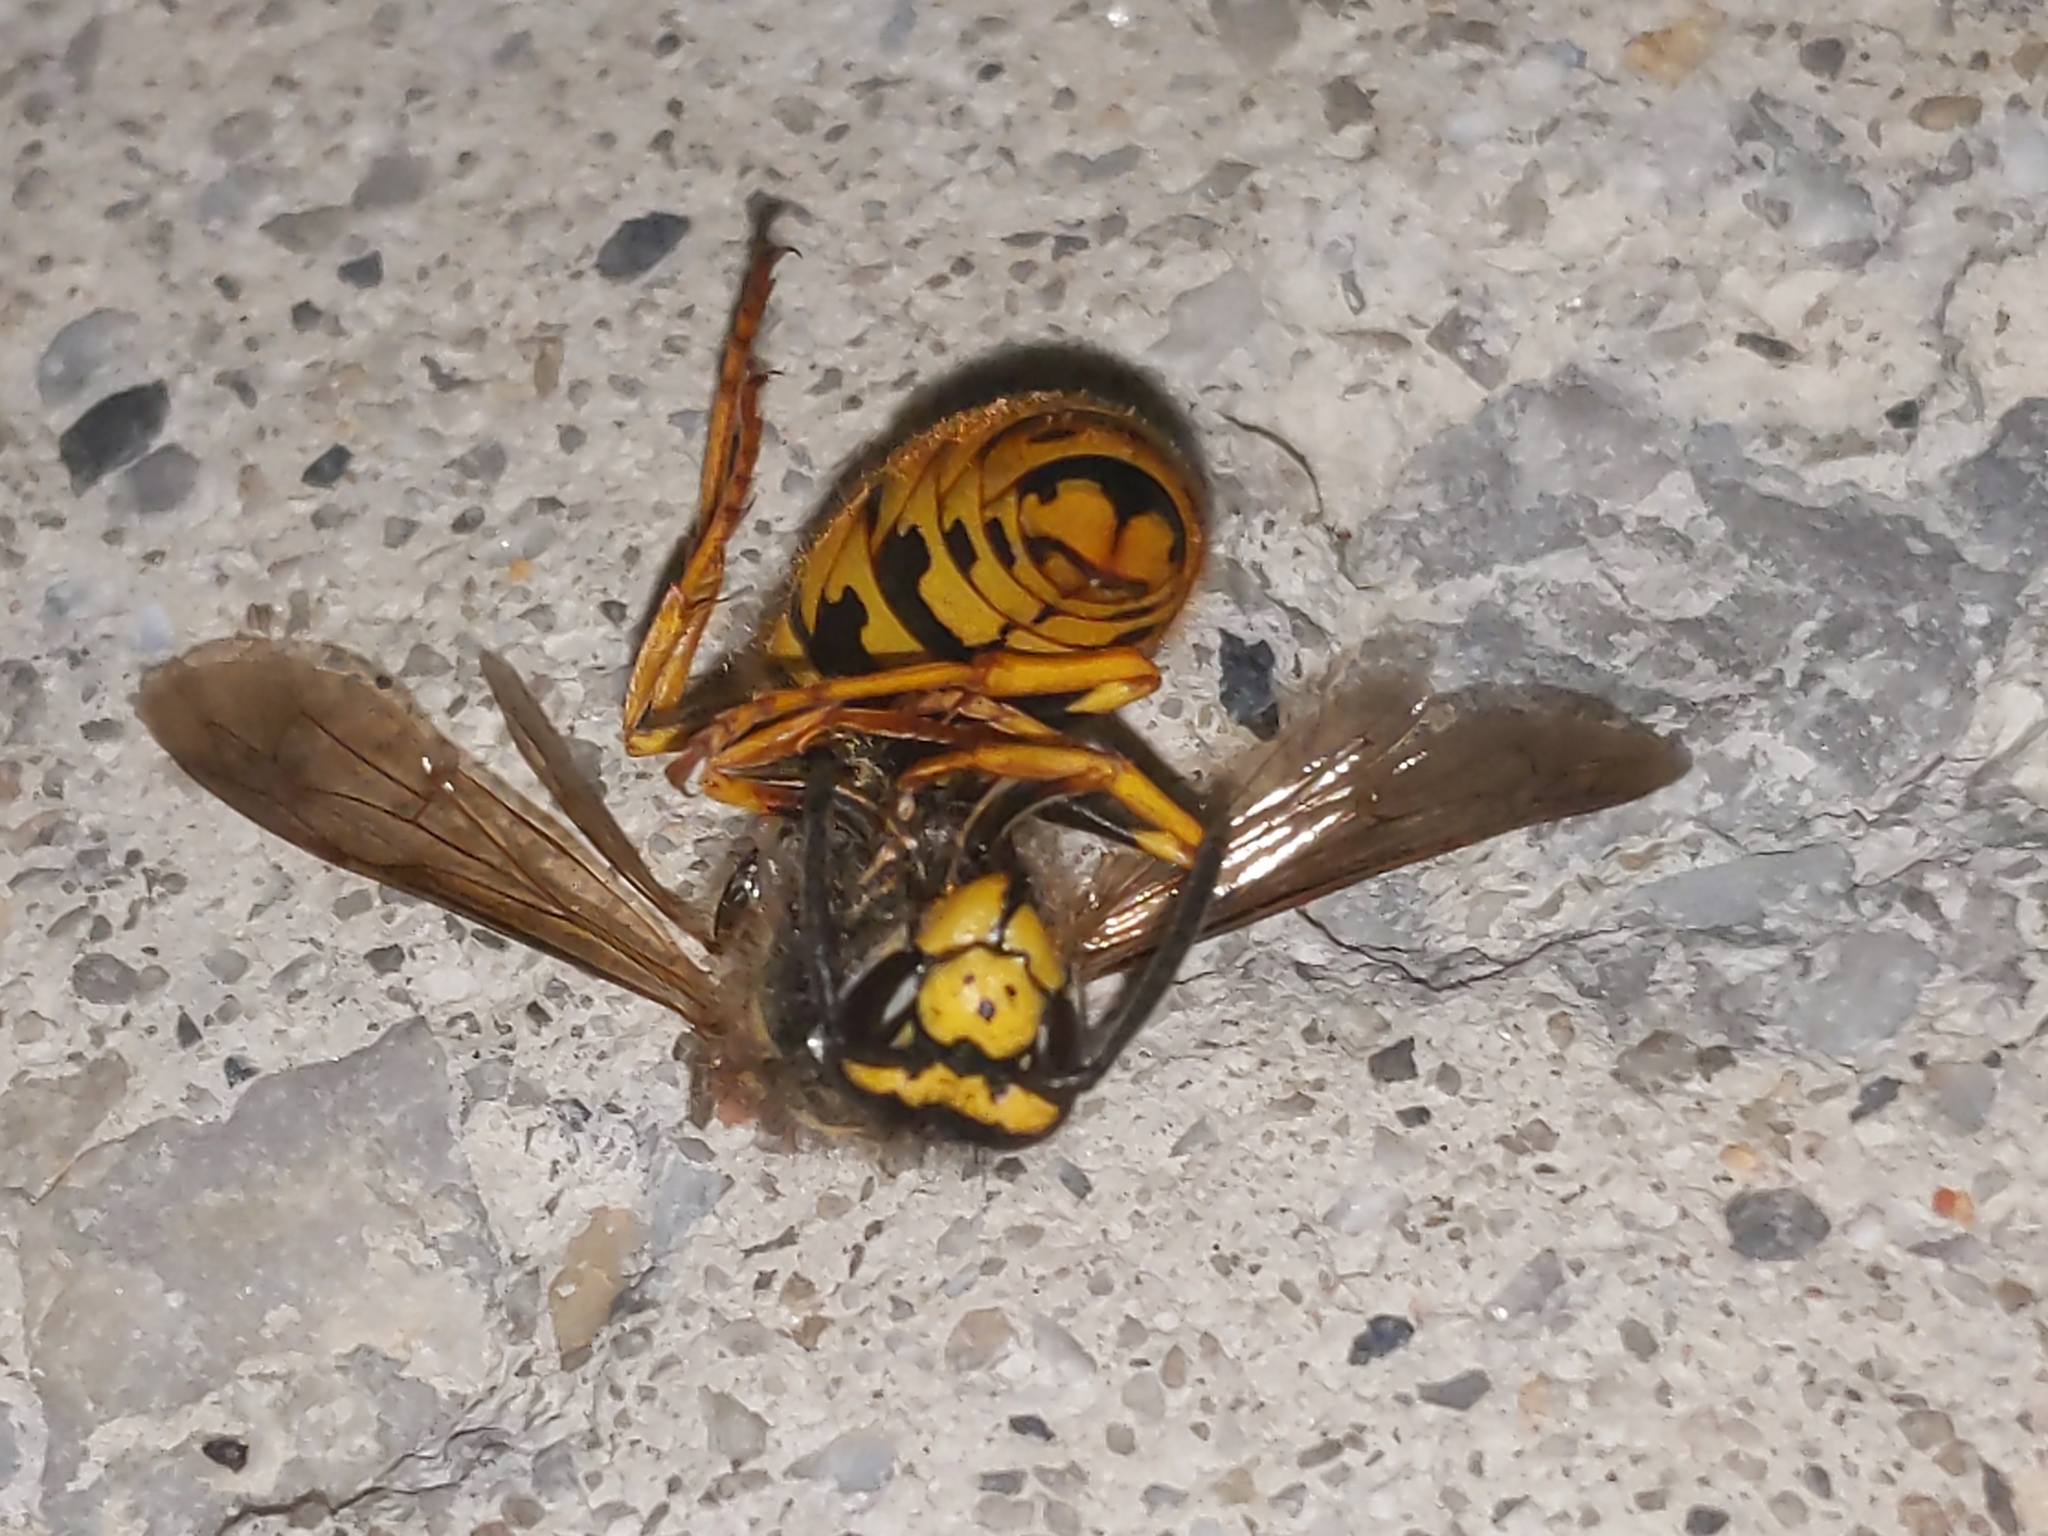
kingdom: Animalia
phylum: Arthropoda
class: Insecta
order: Hymenoptera
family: Vespidae
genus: Vespula
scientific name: Vespula germanica
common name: German wasp
